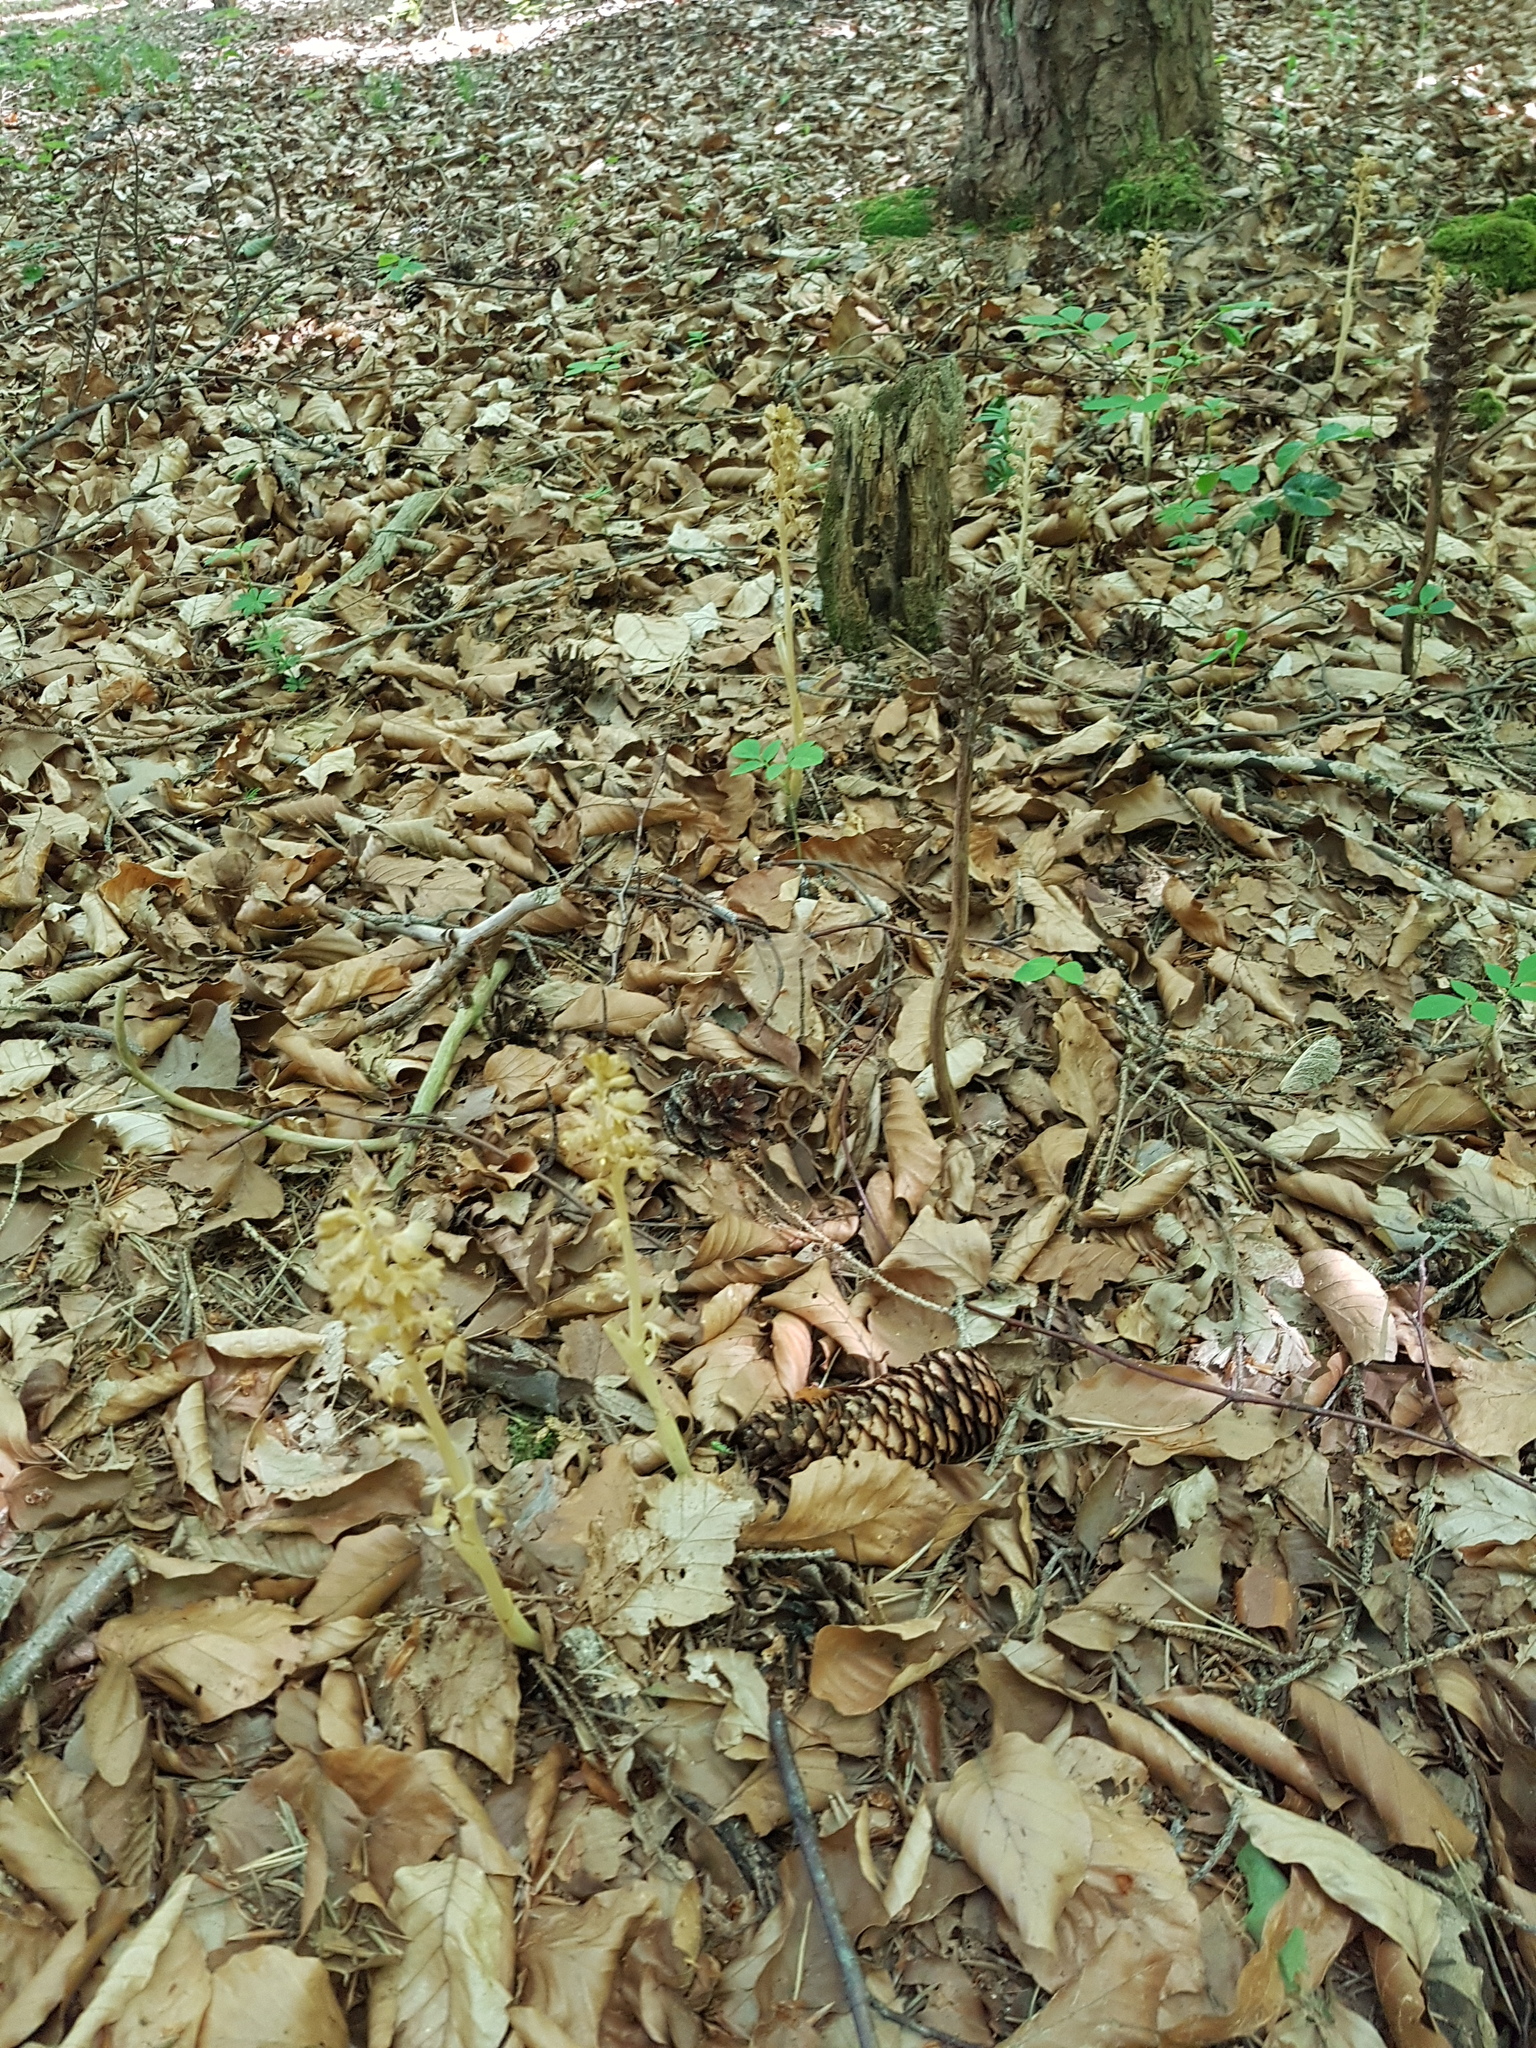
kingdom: Plantae
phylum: Tracheophyta
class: Liliopsida
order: Asparagales
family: Orchidaceae
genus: Neottia
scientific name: Neottia nidus-avis
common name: Bird's-nest orchid
